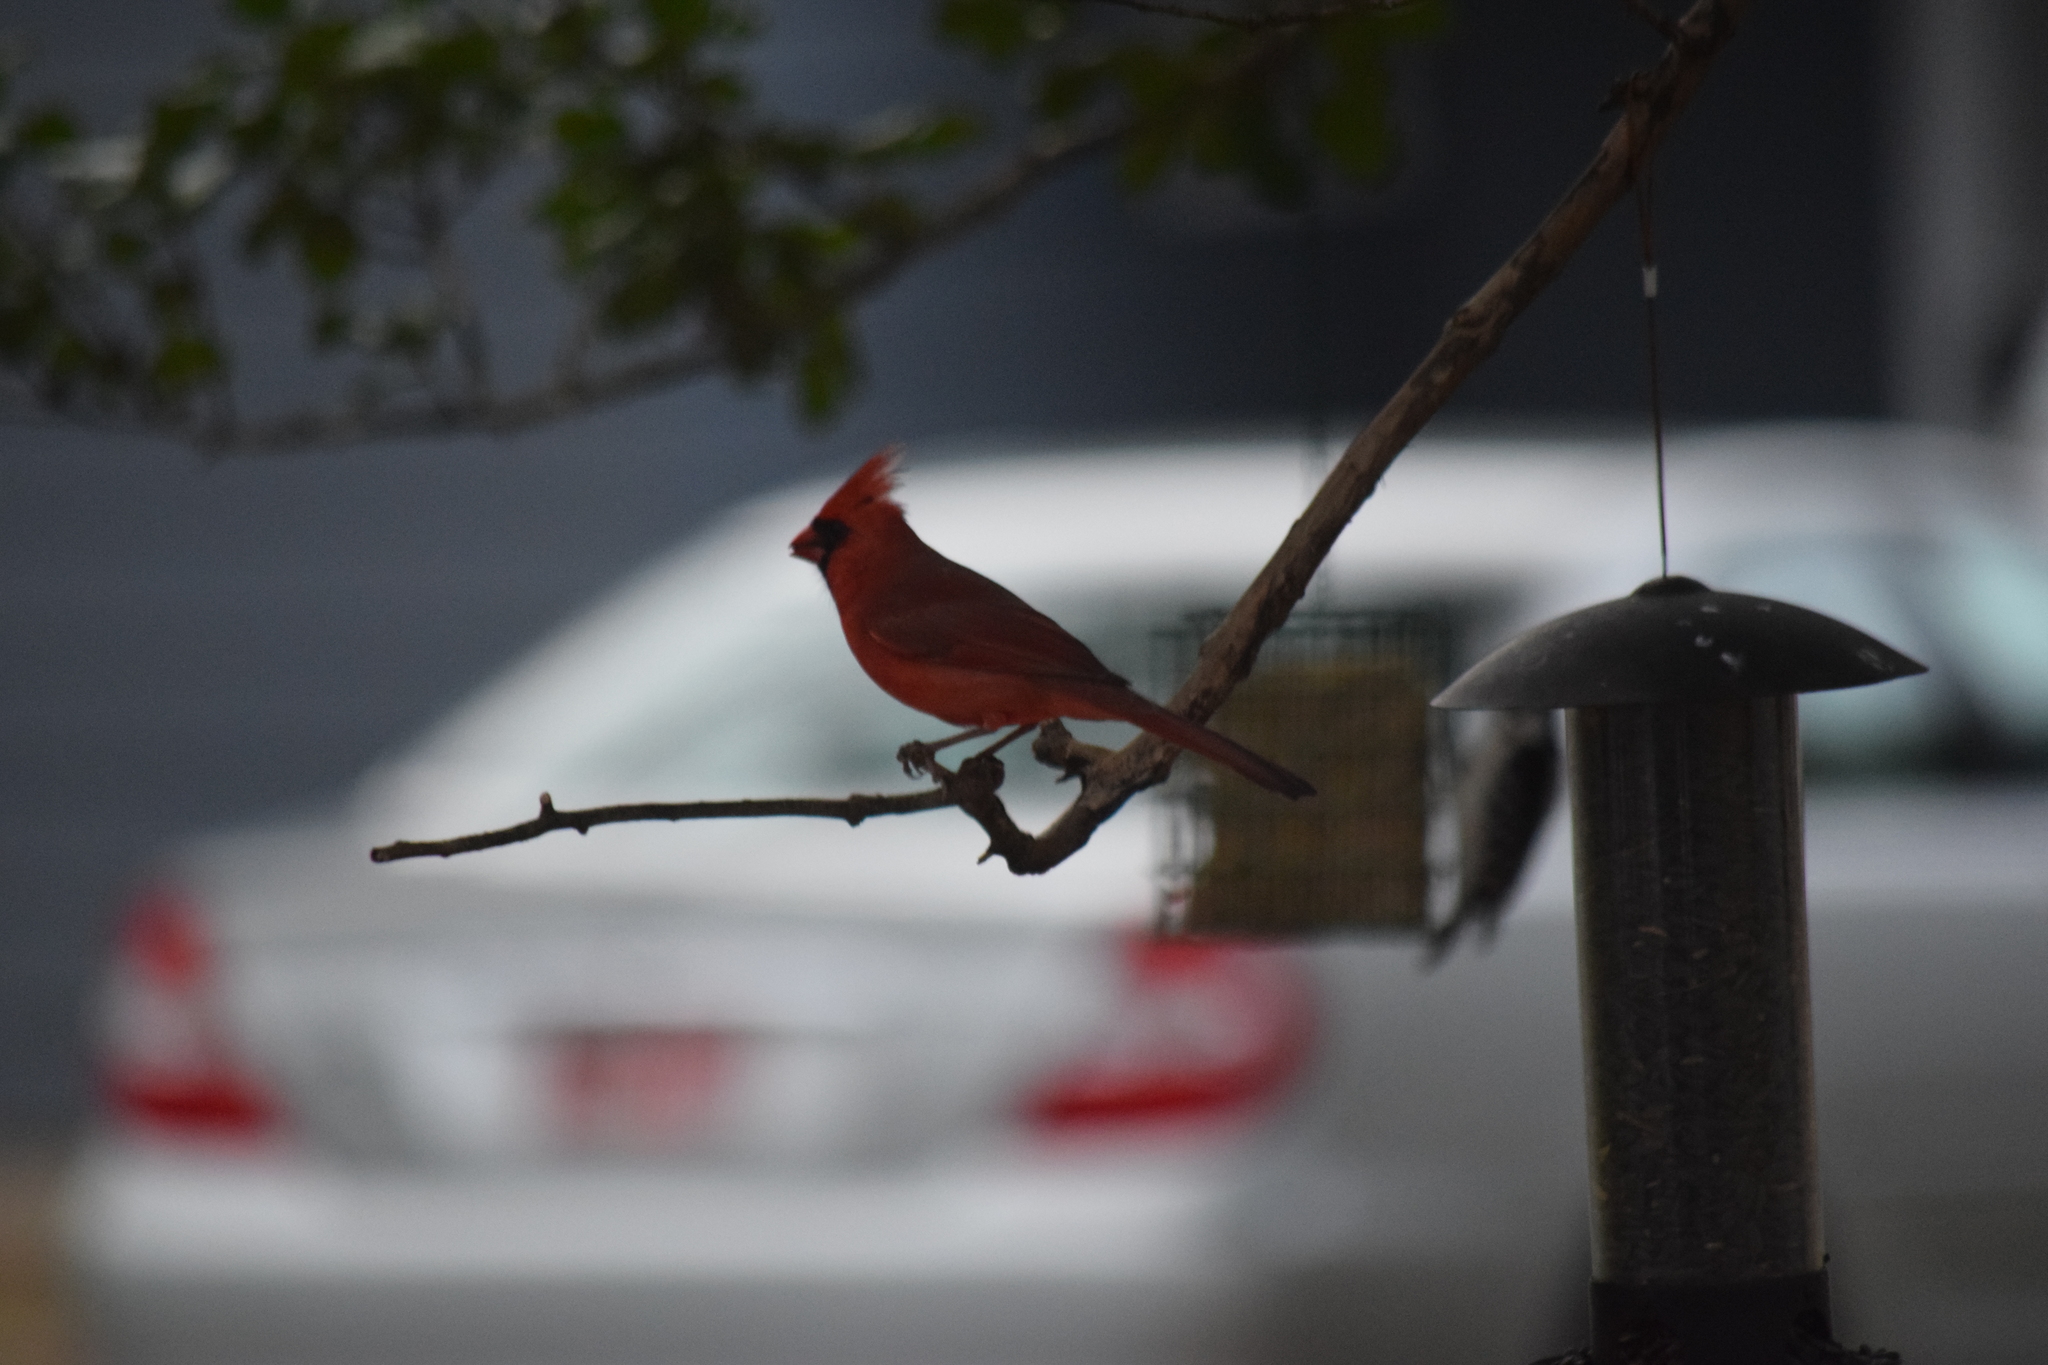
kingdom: Animalia
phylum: Chordata
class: Aves
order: Passeriformes
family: Cardinalidae
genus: Cardinalis
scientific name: Cardinalis cardinalis
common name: Northern cardinal
